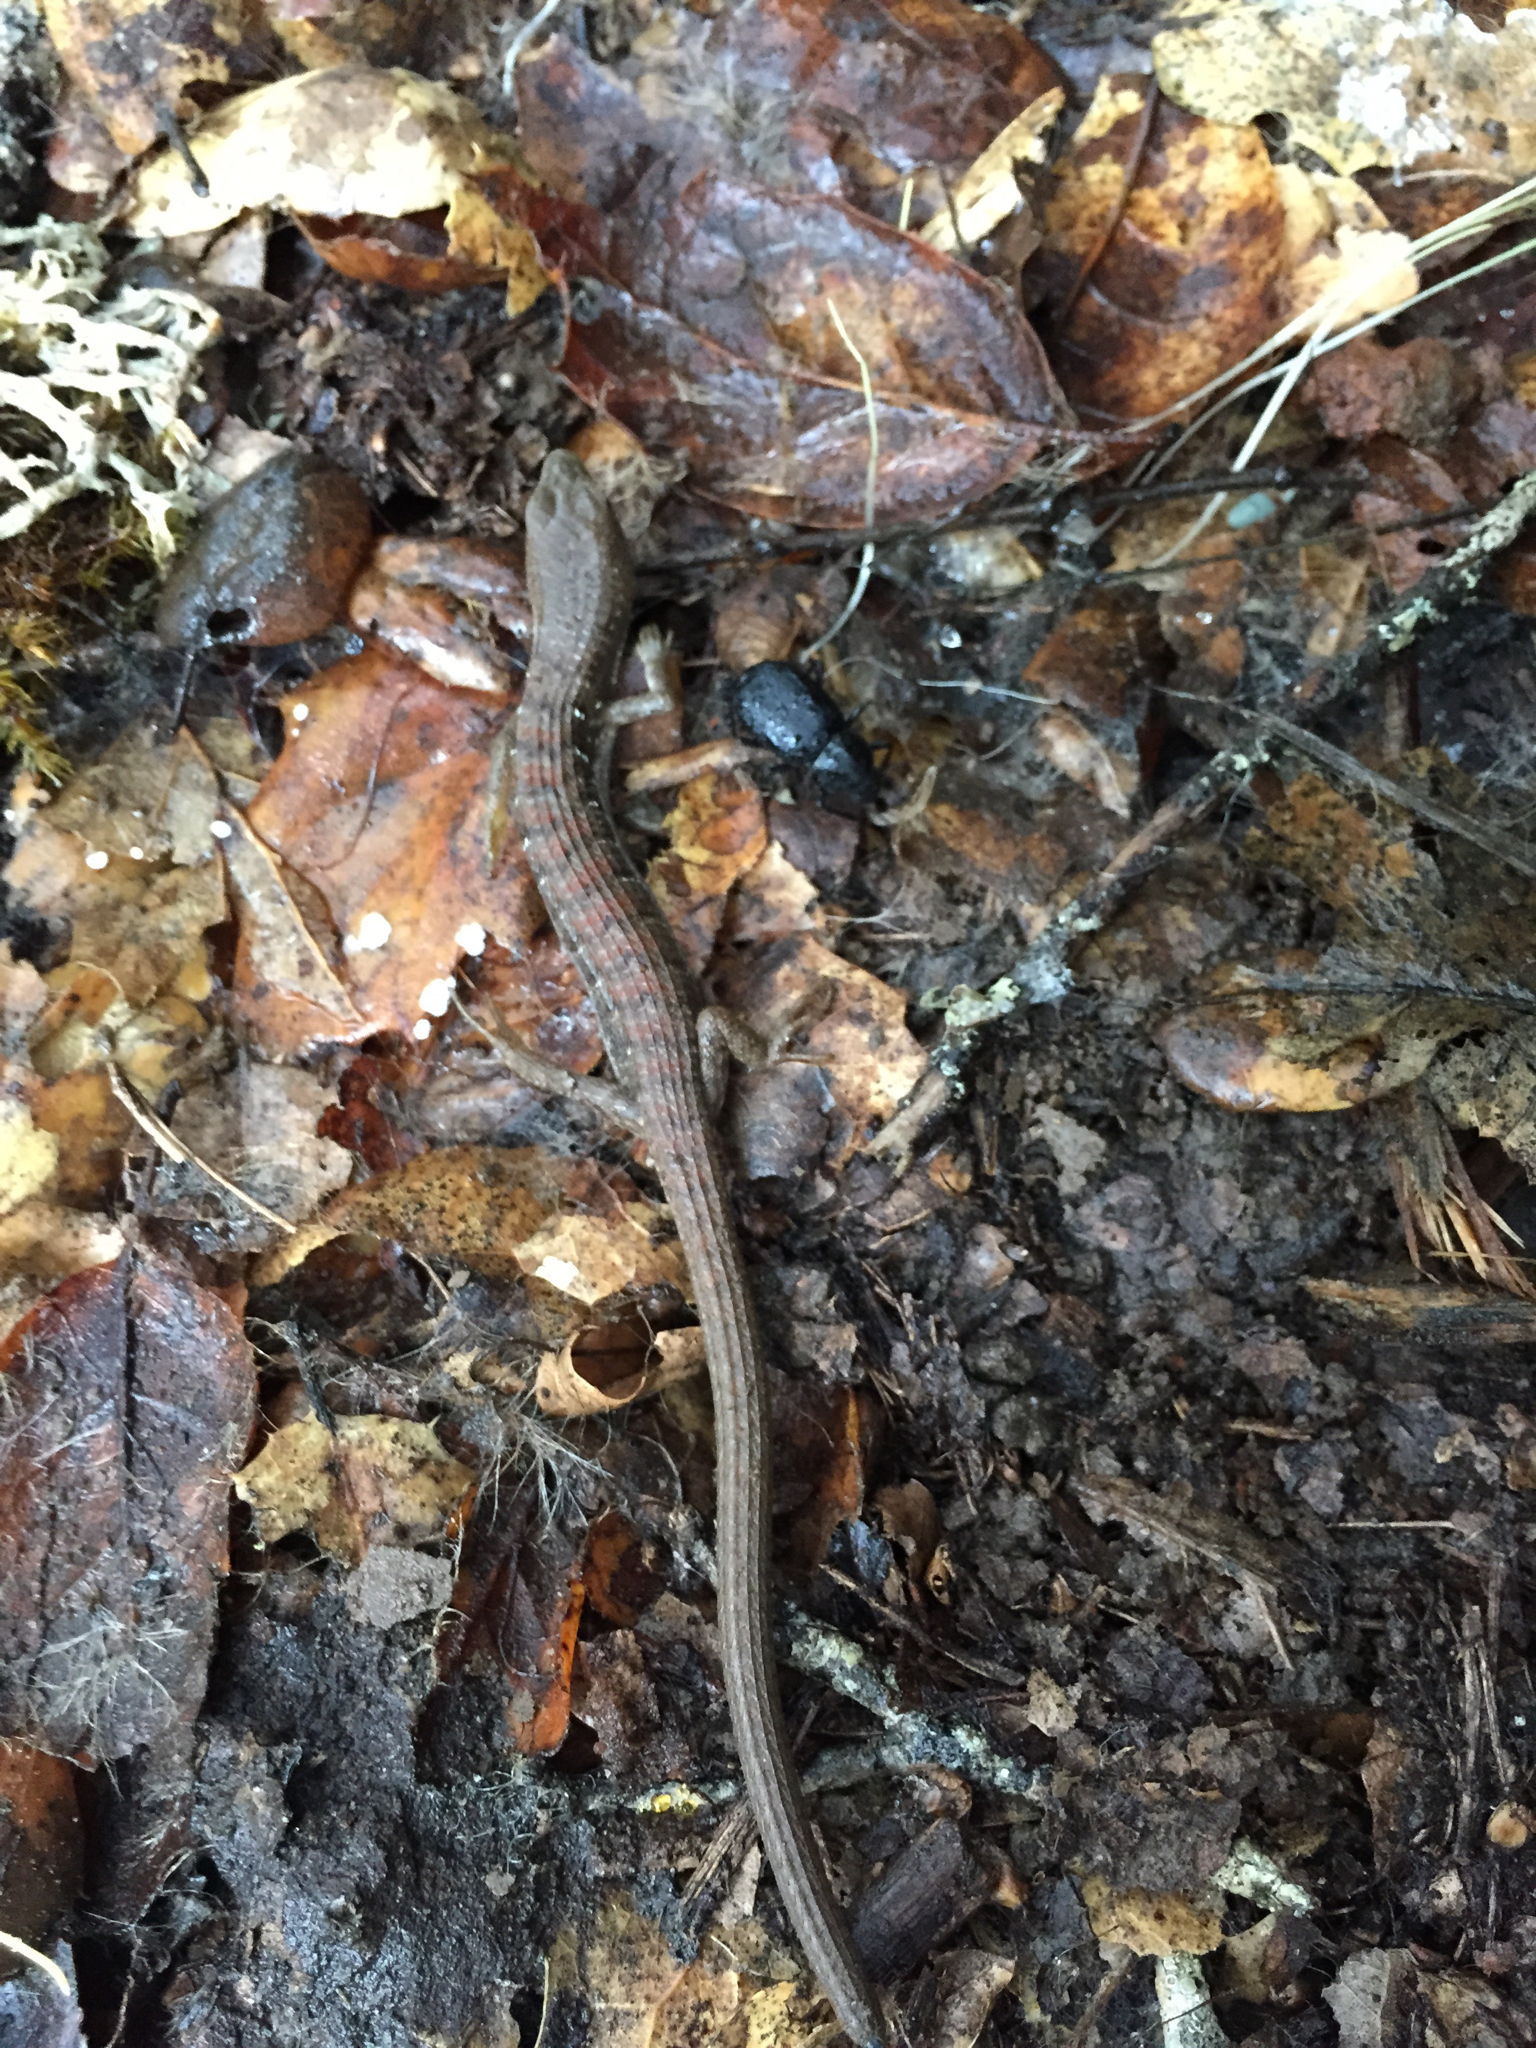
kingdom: Animalia
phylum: Chordata
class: Squamata
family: Anguidae
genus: Elgaria
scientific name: Elgaria multicarinata
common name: Southern alligator lizard
